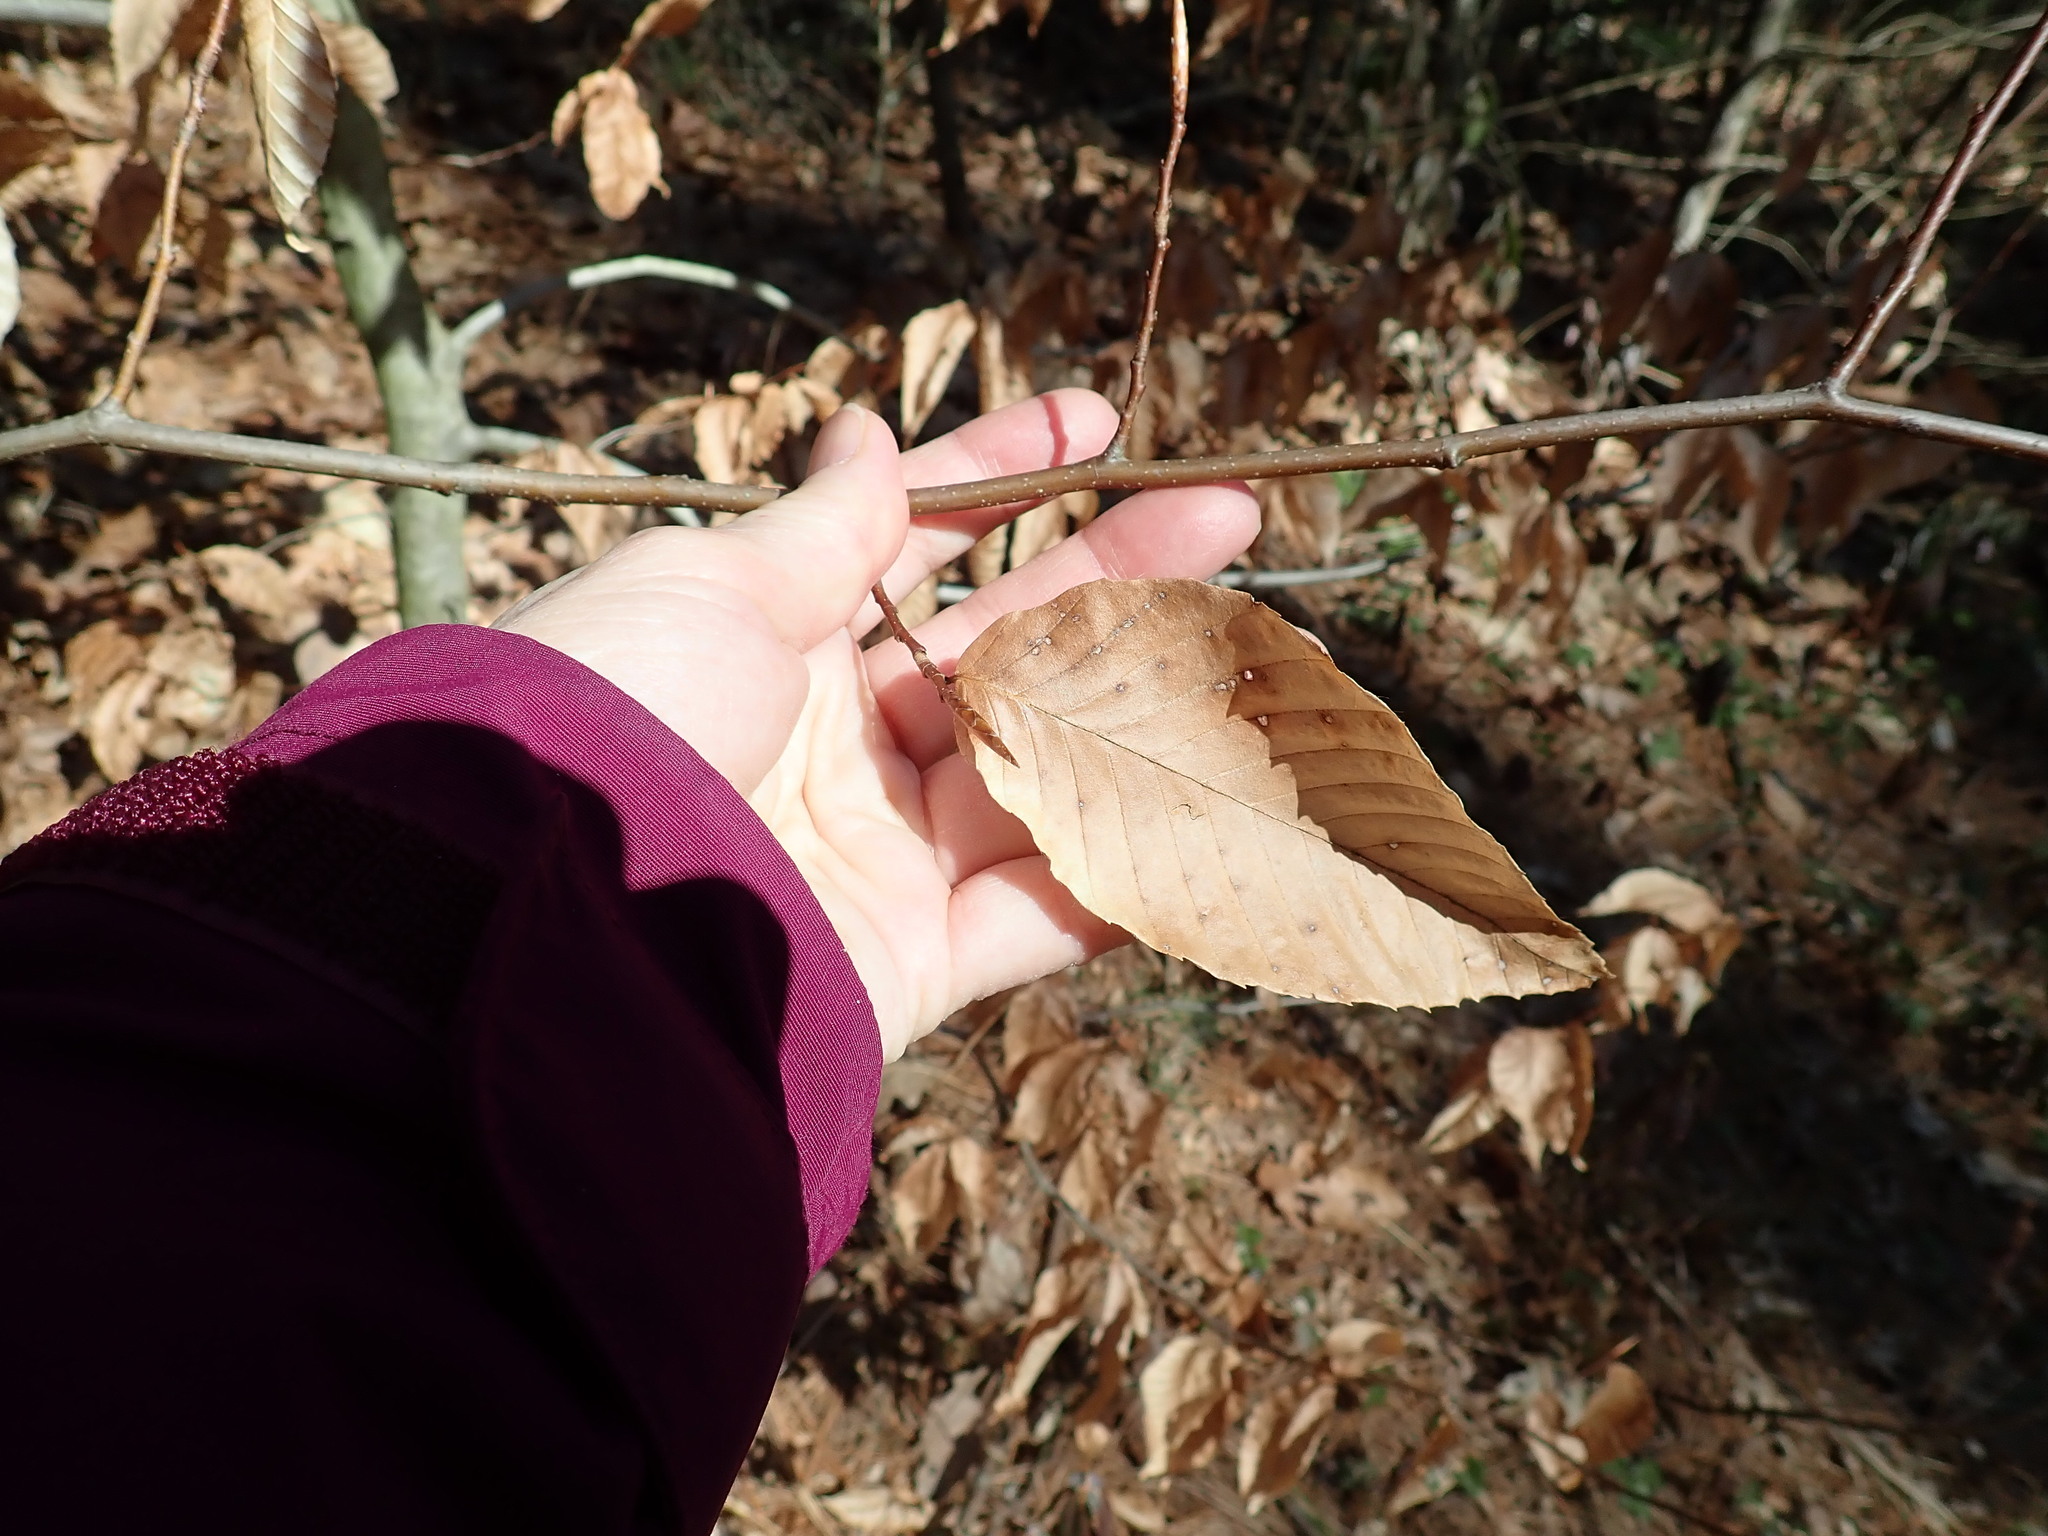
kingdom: Plantae
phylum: Tracheophyta
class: Magnoliopsida
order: Fagales
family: Fagaceae
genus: Fagus
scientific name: Fagus grandifolia
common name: American beech
